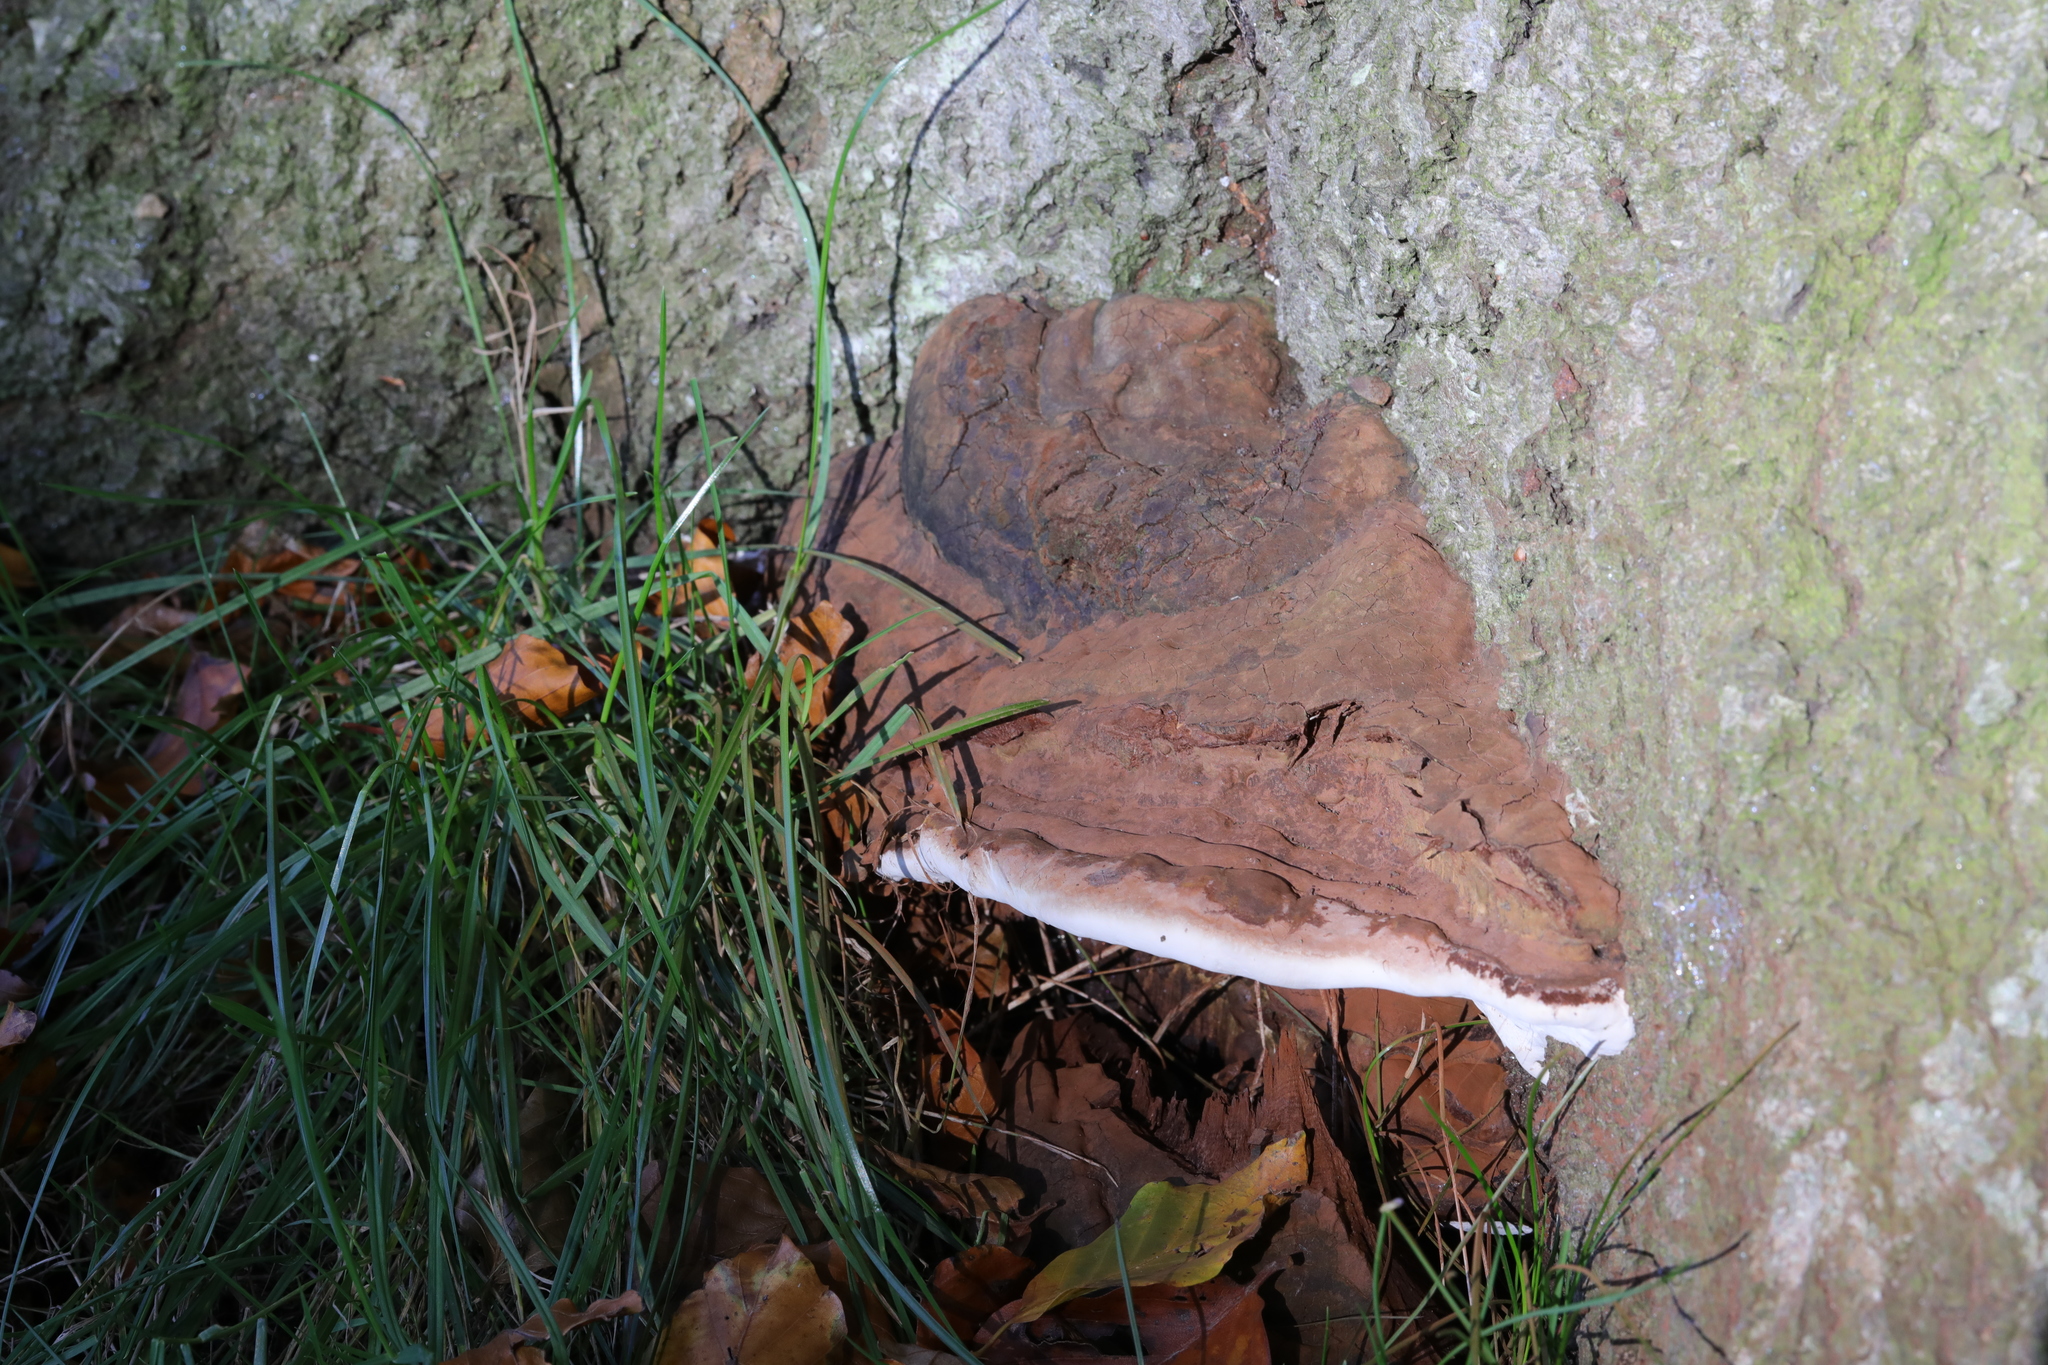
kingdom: Fungi
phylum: Basidiomycota
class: Agaricomycetes
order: Polyporales
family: Polyporaceae
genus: Ganoderma
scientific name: Ganoderma applanatum
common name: Artist's bracket
